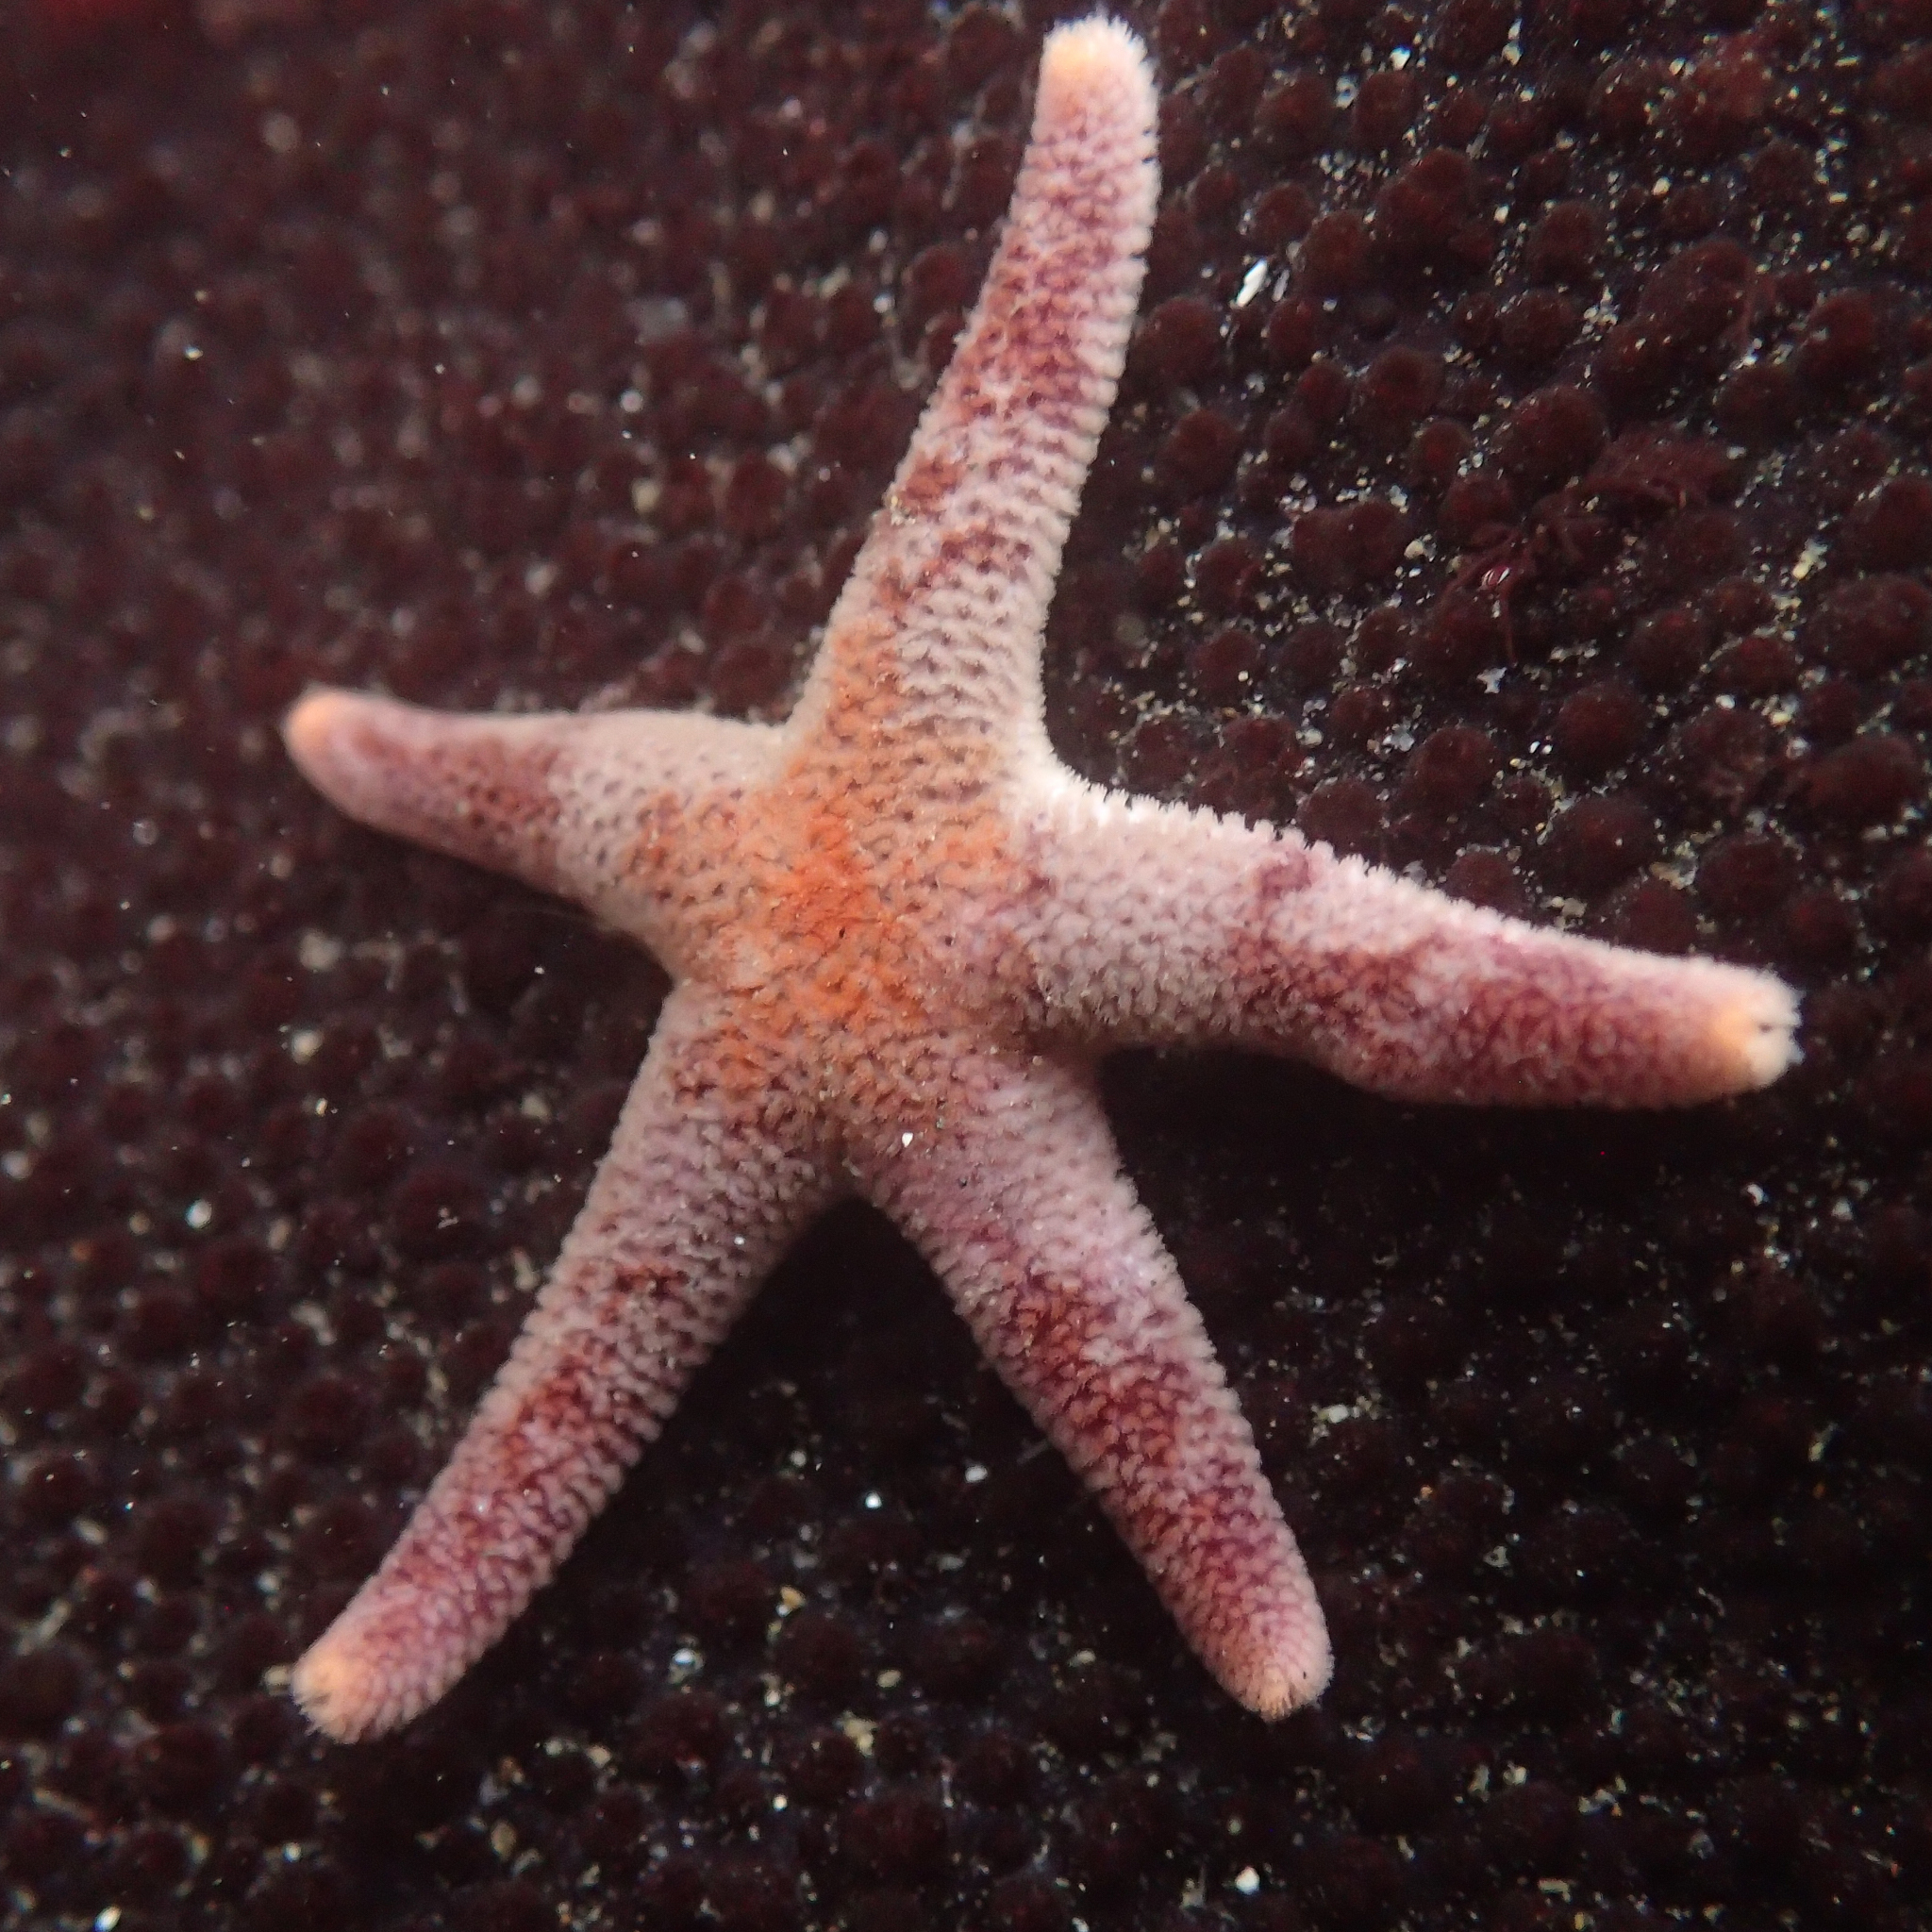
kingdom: Animalia
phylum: Echinodermata
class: Asteroidea
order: Spinulosida
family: Echinasteridae
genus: Henricia
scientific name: Henricia pumila
